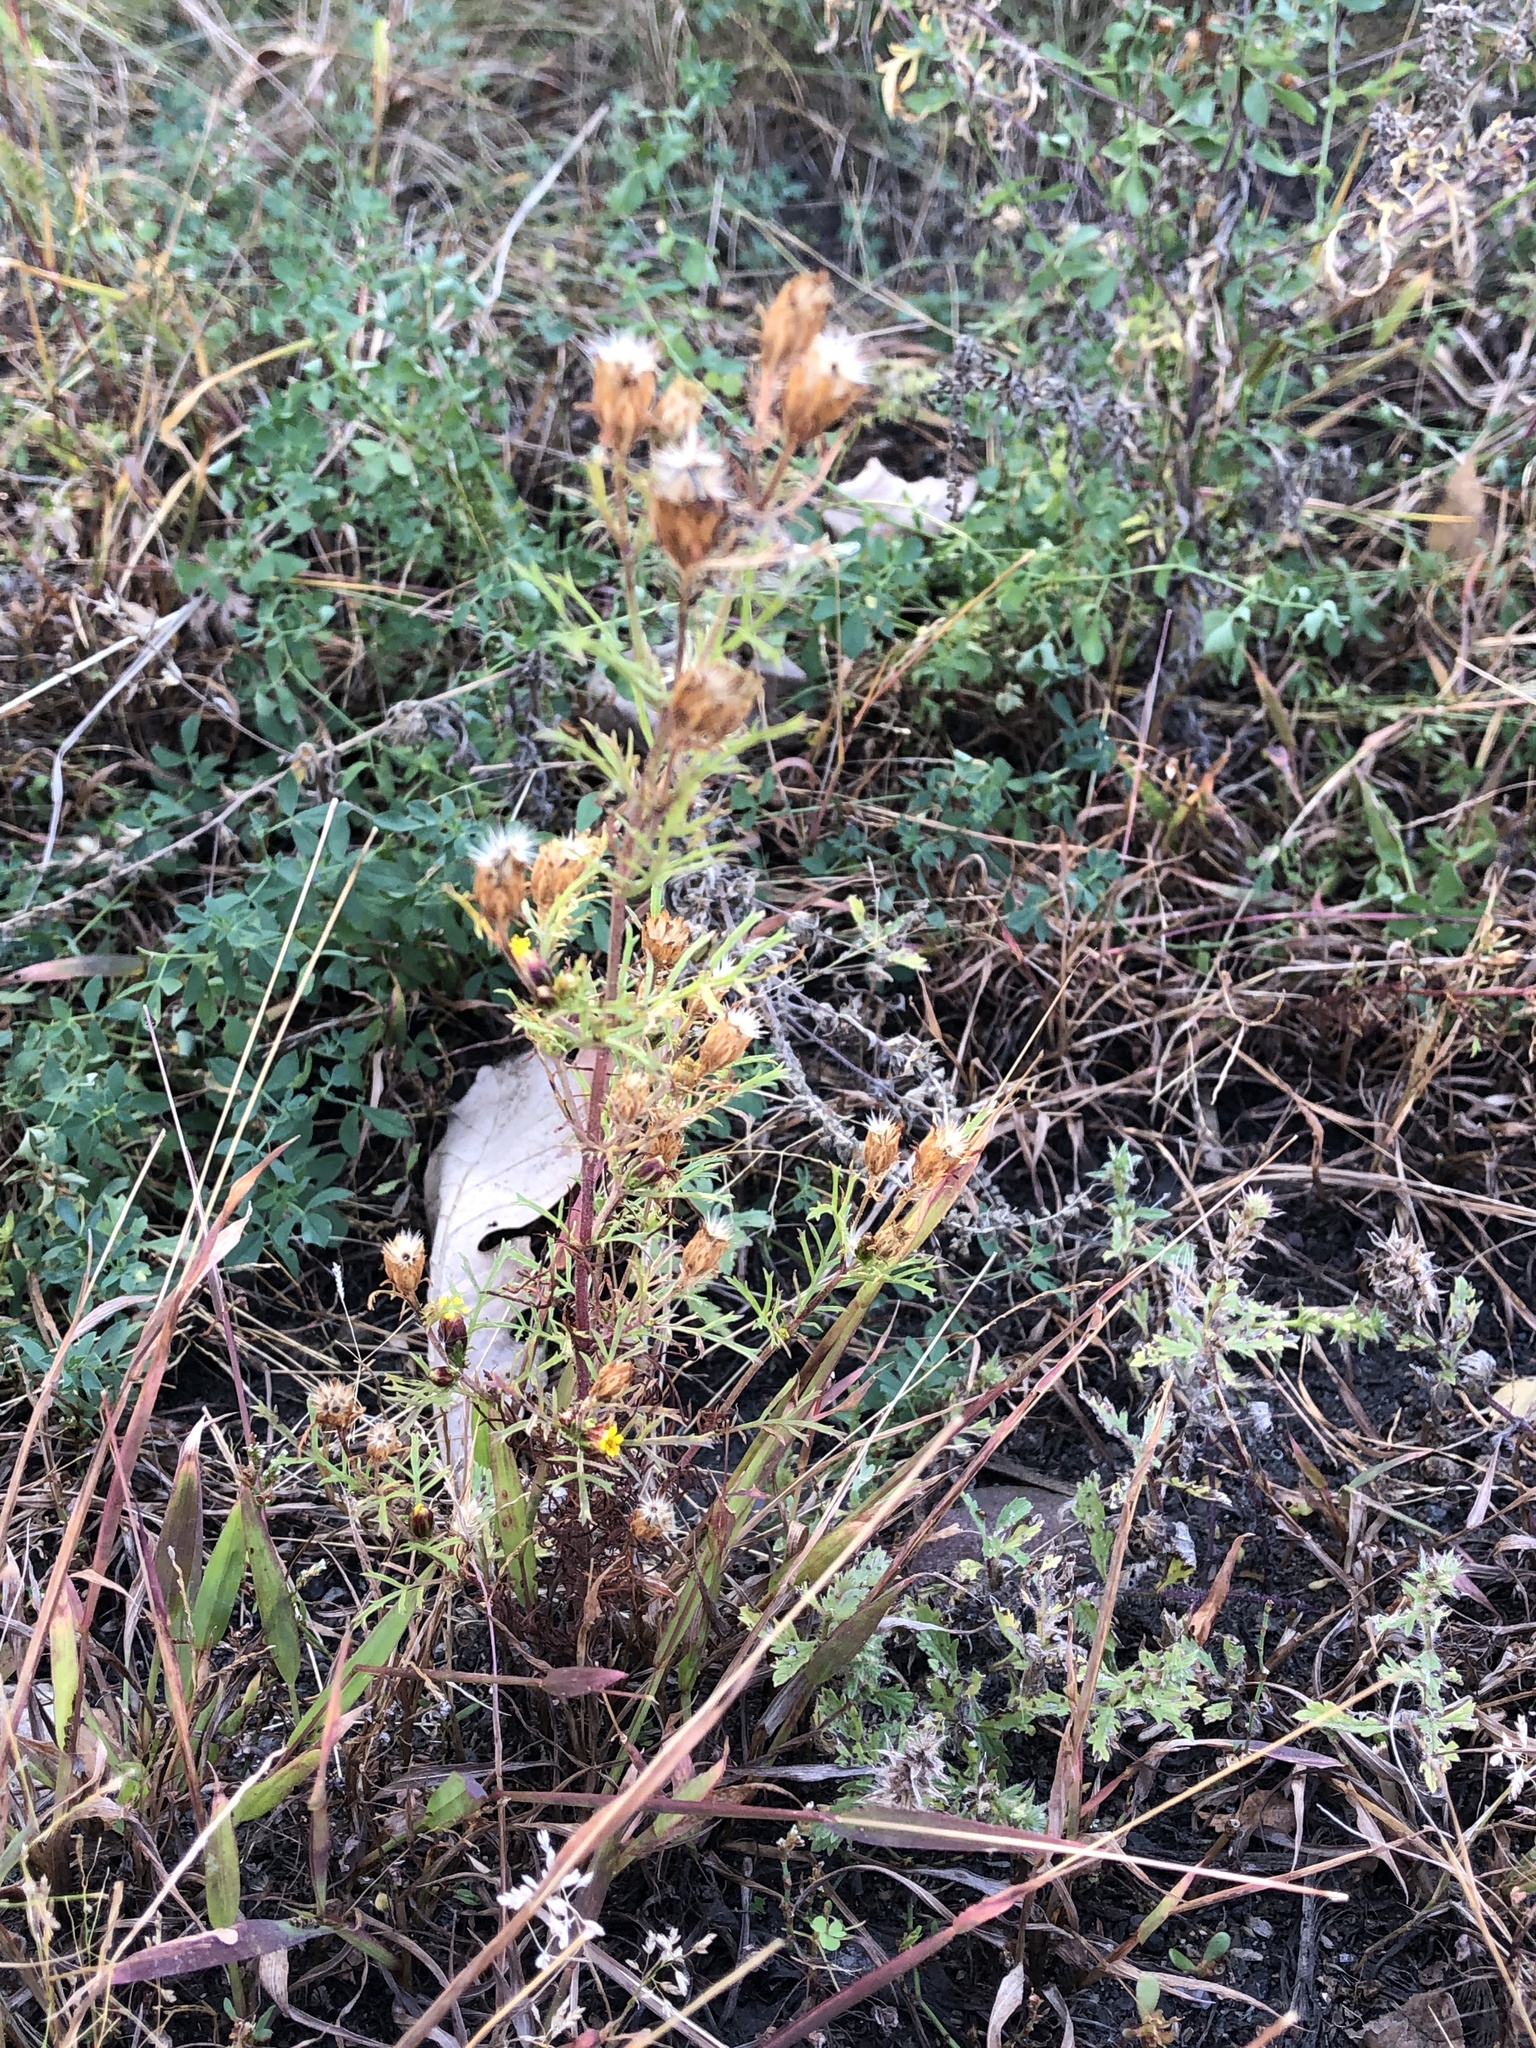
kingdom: Plantae
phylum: Tracheophyta
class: Magnoliopsida
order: Asterales
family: Asteraceae
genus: Dyssodia
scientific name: Dyssodia papposa
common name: Dogweed
